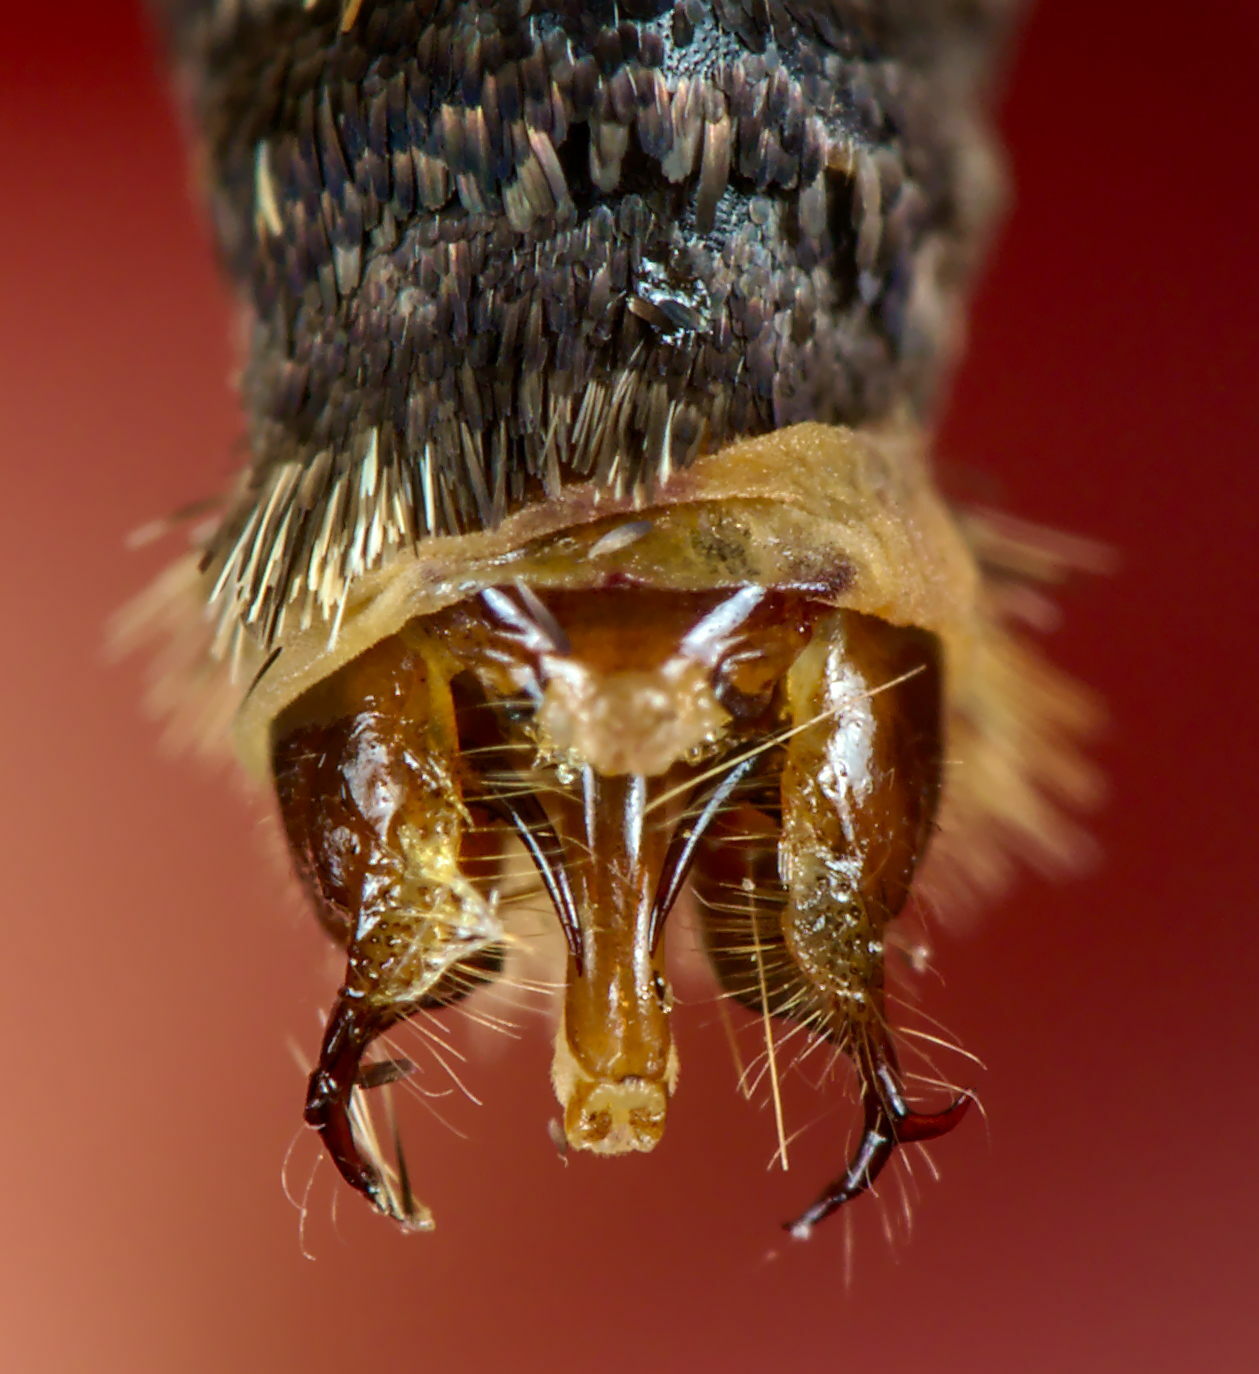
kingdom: Animalia
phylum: Arthropoda
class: Insecta
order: Lepidoptera
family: Nymphalidae
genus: Melitaea
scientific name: Melitaea diamina
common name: False heath fritillary
